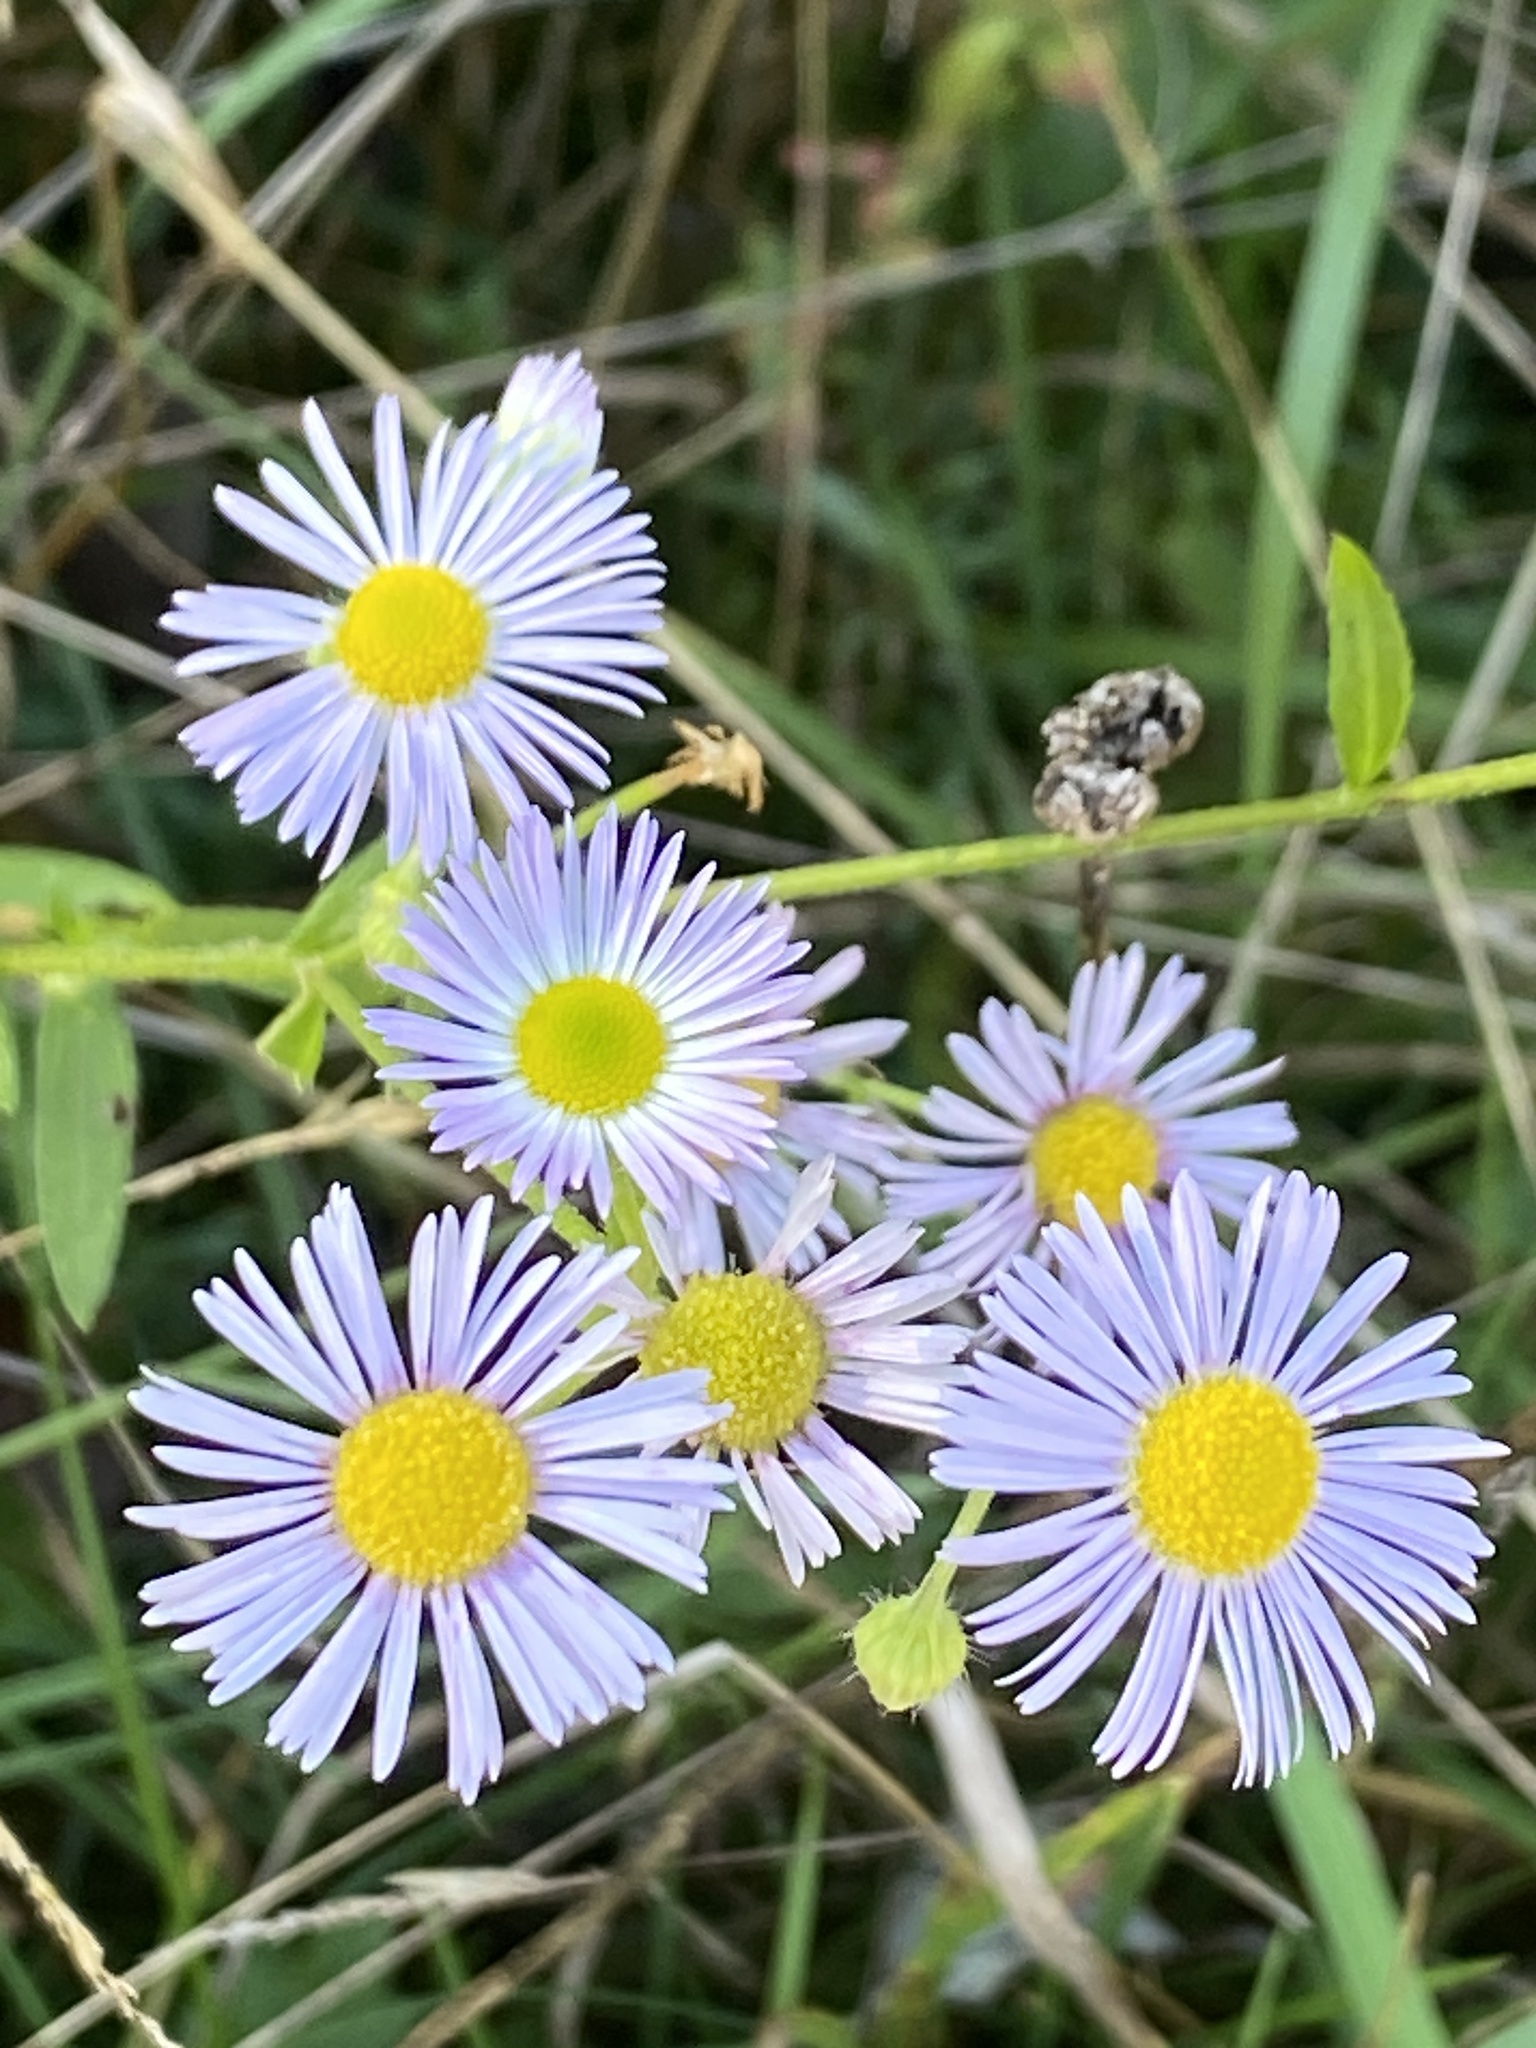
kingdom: Plantae
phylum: Tracheophyta
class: Magnoliopsida
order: Asterales
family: Asteraceae
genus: Erigeron
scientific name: Erigeron annuus
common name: Tall fleabane
